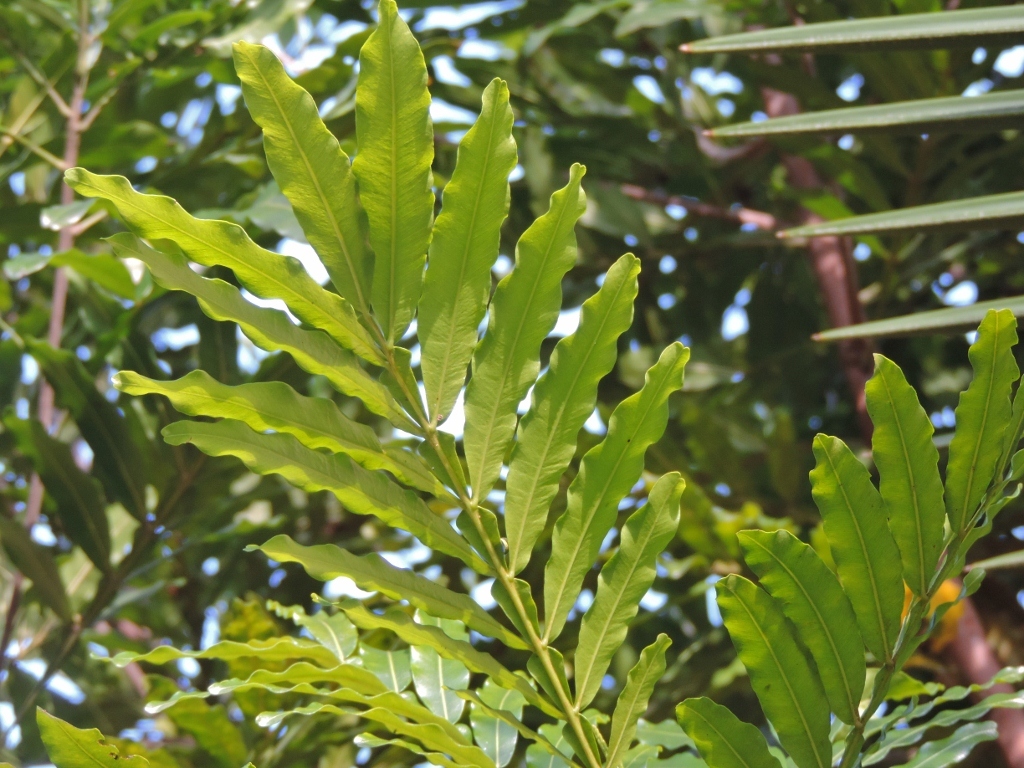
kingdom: Plantae
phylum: Tracheophyta
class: Magnoliopsida
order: Sapindales
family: Sapindaceae
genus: Filicium
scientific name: Filicium decipiens
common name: Ferntree
